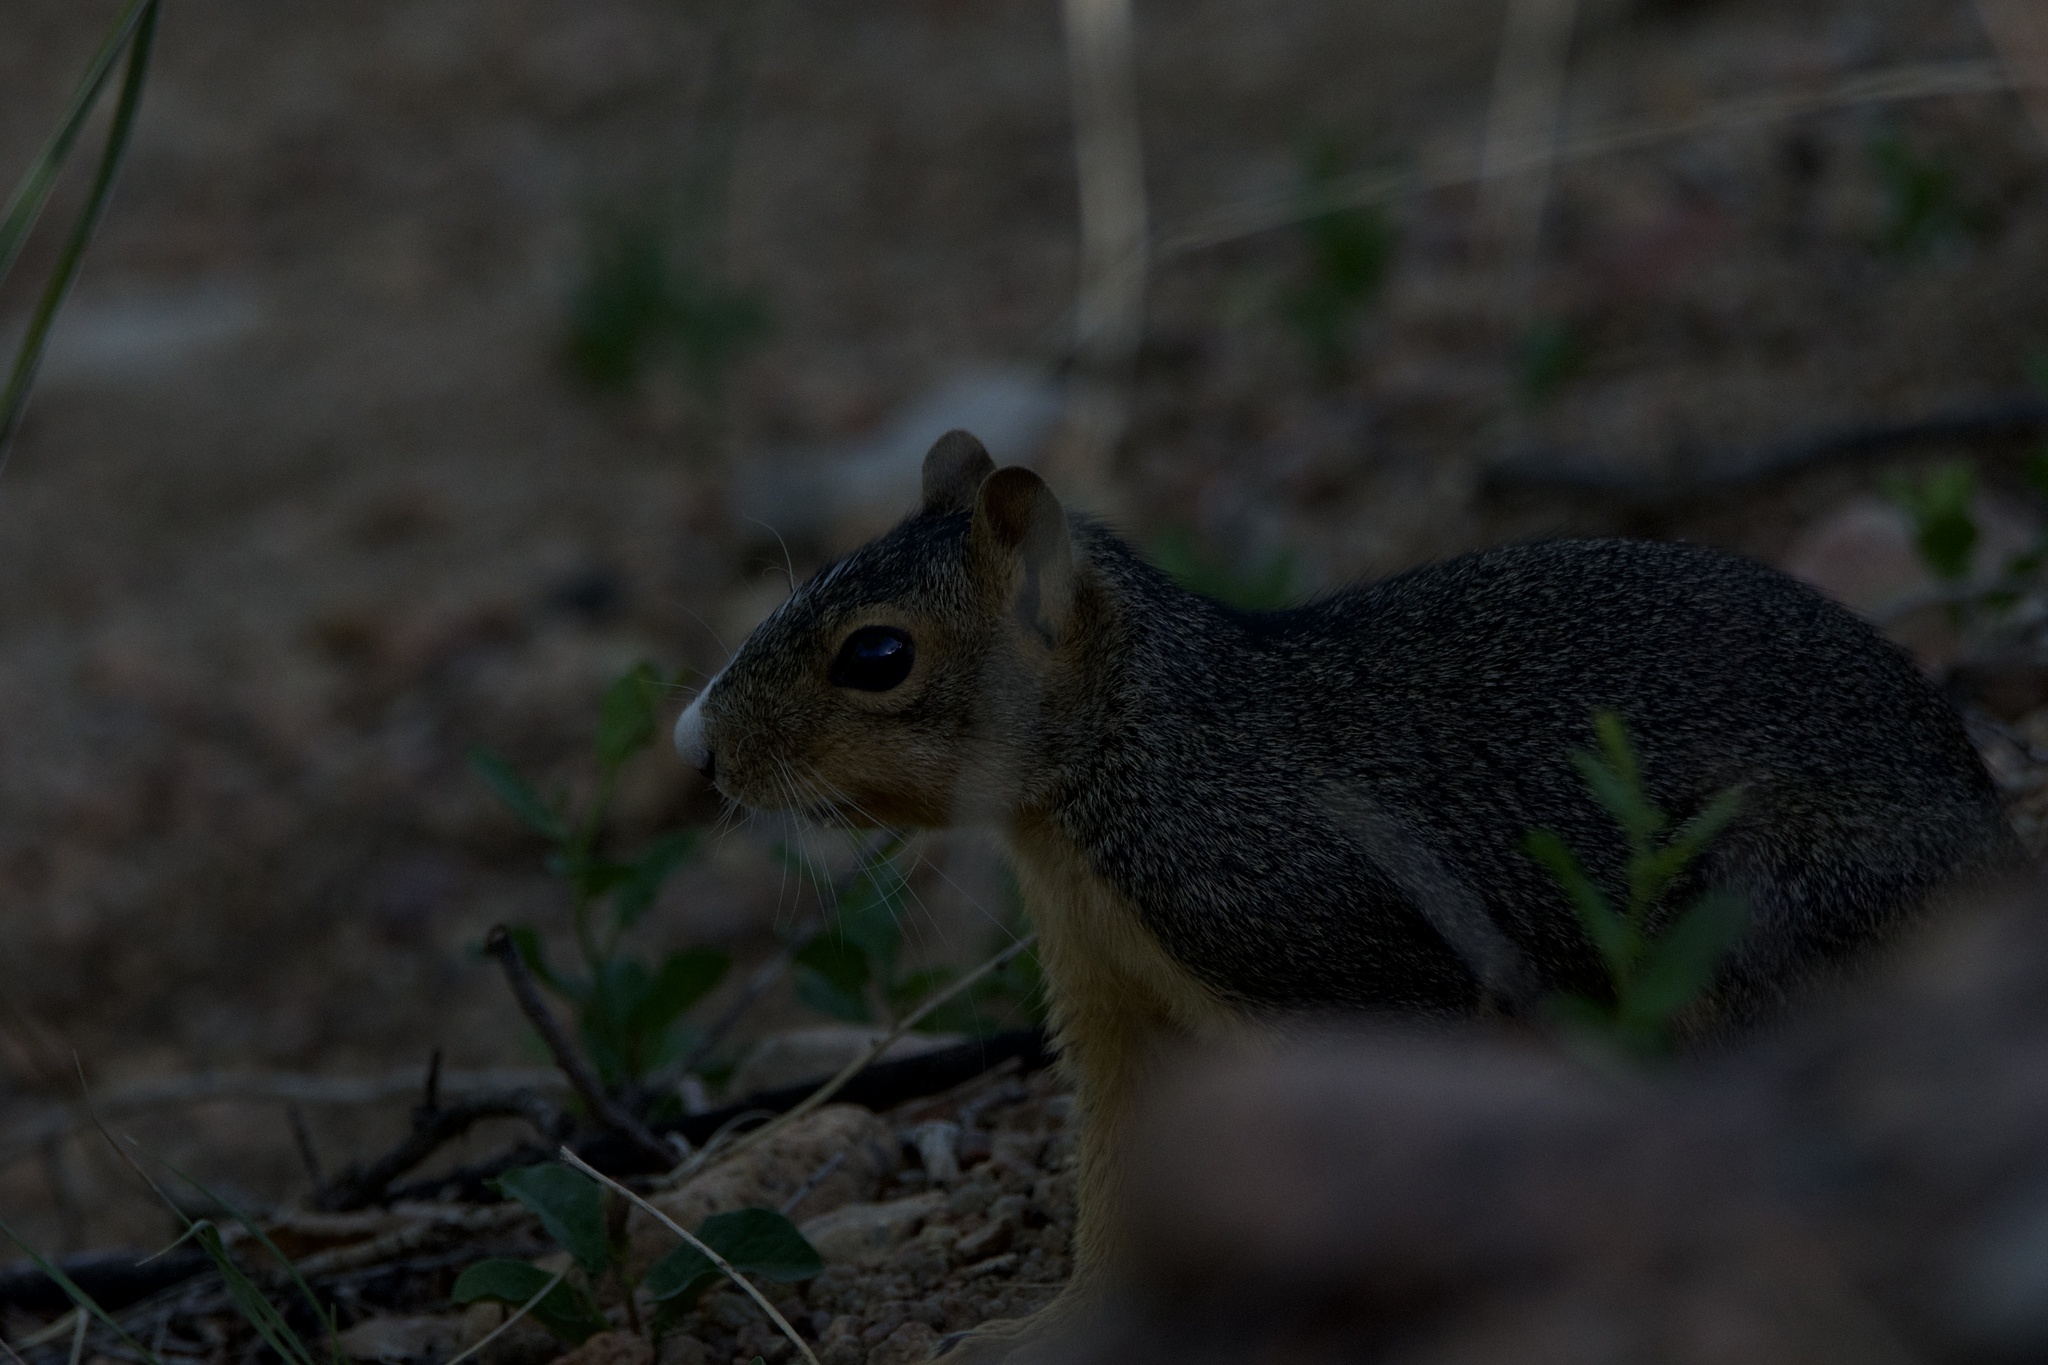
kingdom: Animalia
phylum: Chordata
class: Mammalia
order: Rodentia
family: Sciuridae
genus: Sciurus
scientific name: Sciurus niger
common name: Fox squirrel
